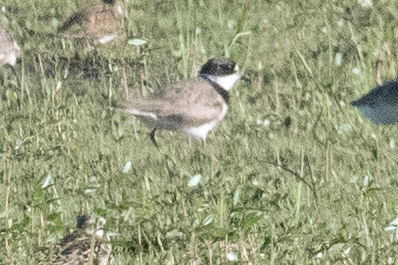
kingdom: Animalia
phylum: Chordata
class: Aves
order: Charadriiformes
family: Charadriidae
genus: Charadrius
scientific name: Charadrius semipalmatus
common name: Semipalmated plover
